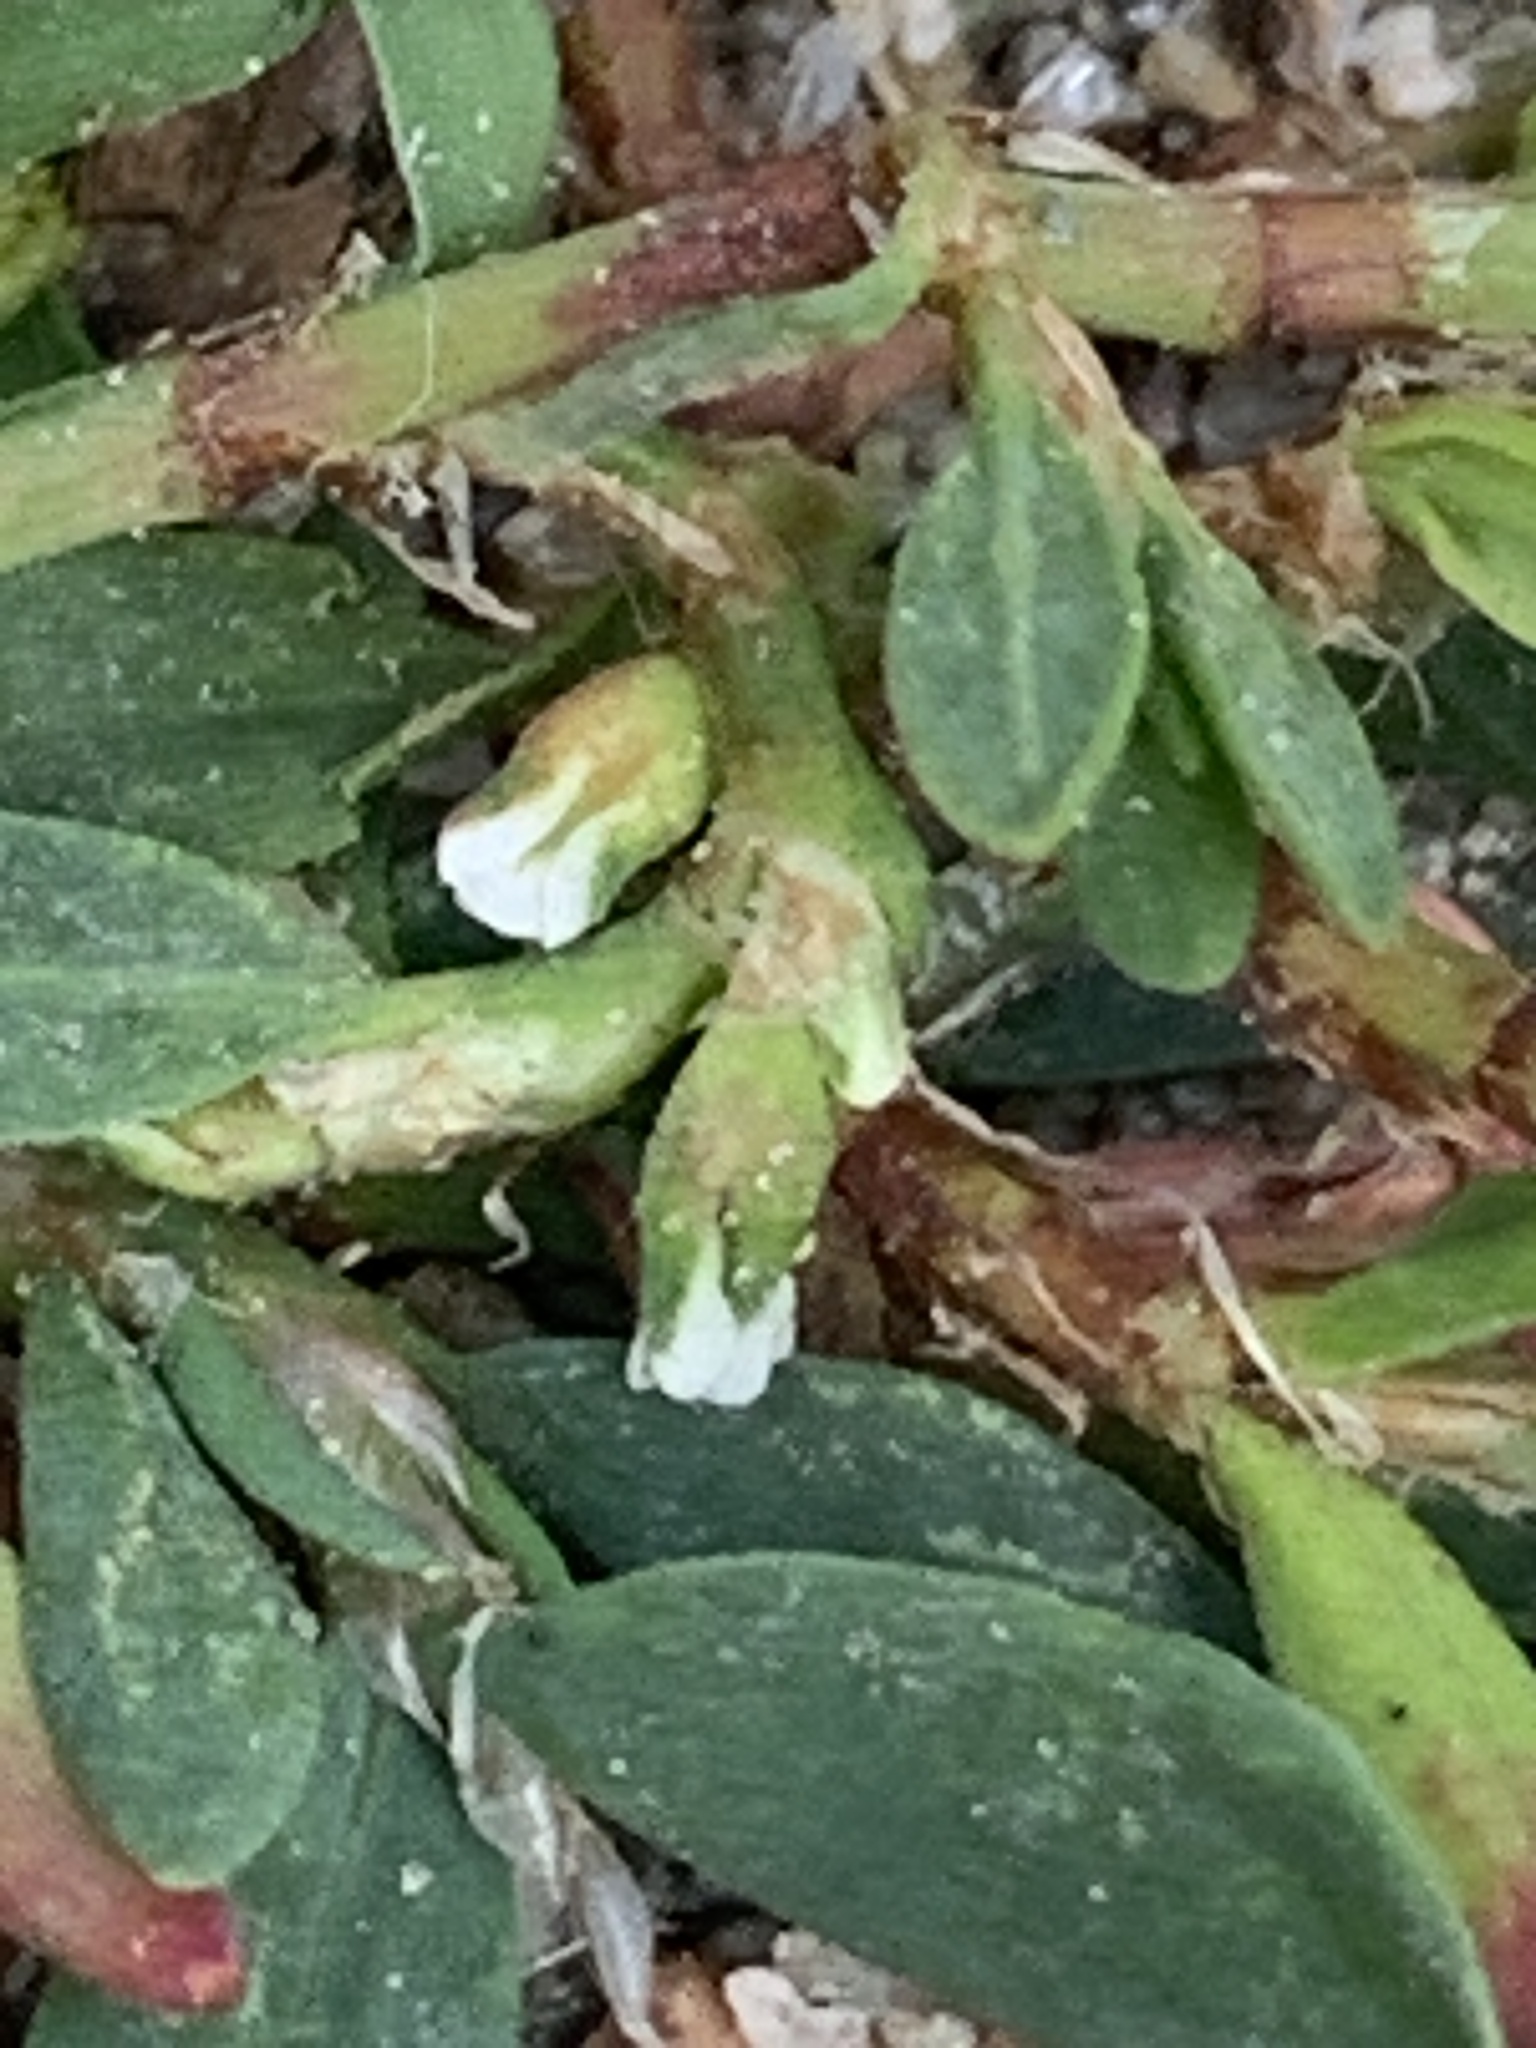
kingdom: Plantae
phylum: Tracheophyta
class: Magnoliopsida
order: Caryophyllales
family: Polygonaceae
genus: Polygonum
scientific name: Polygonum aviculare
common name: Prostrate knotweed
